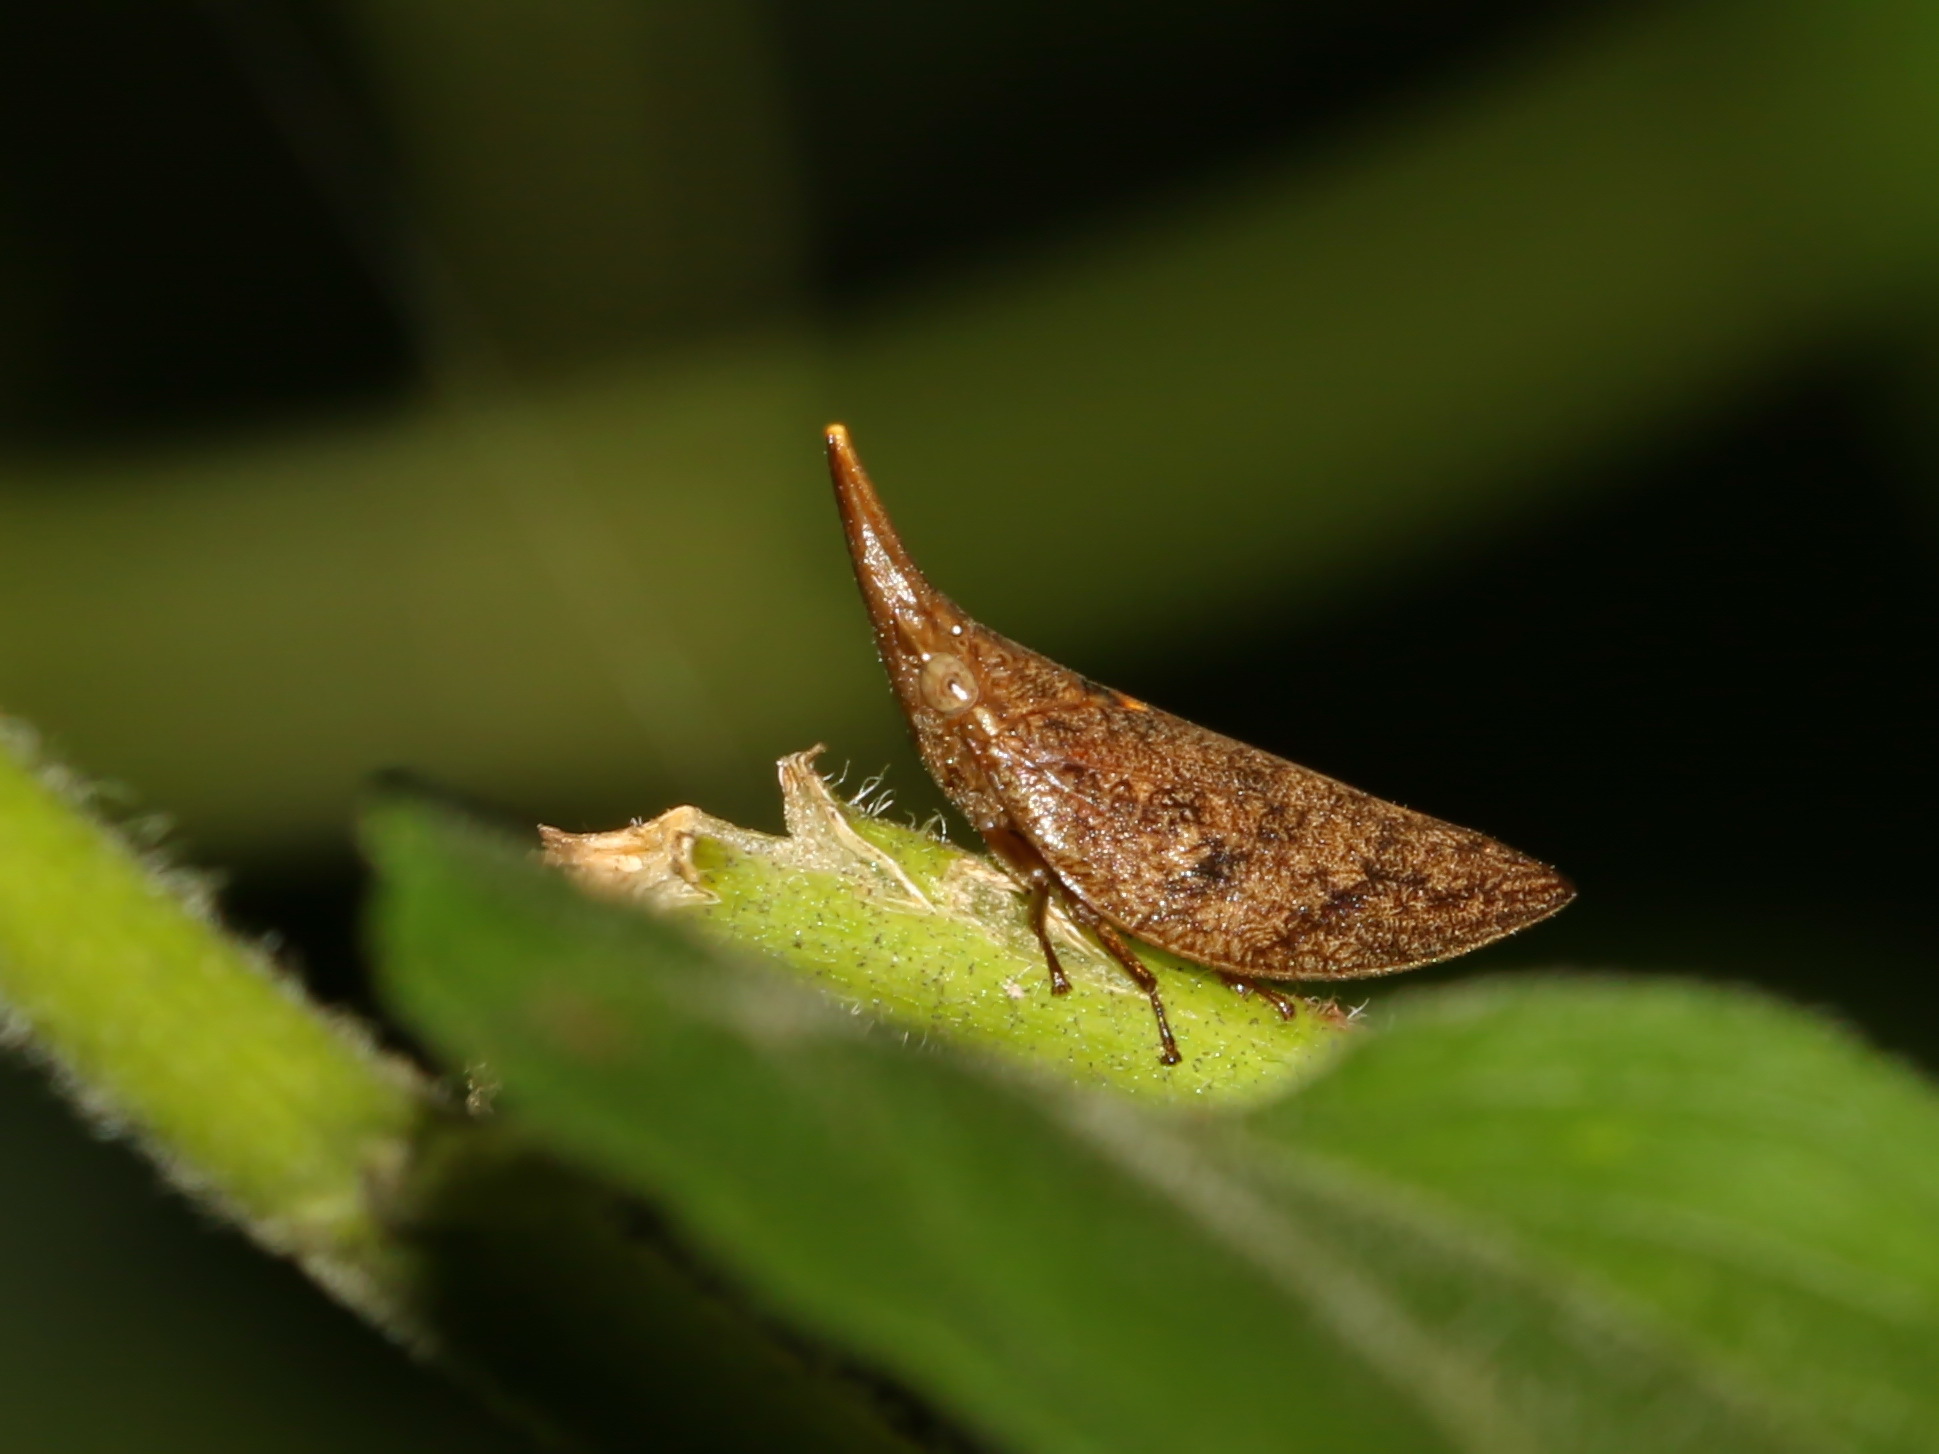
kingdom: Animalia
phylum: Arthropoda
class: Insecta
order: Hemiptera
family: Aphrophoridae
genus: Philagra
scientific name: Philagra fusiformis
